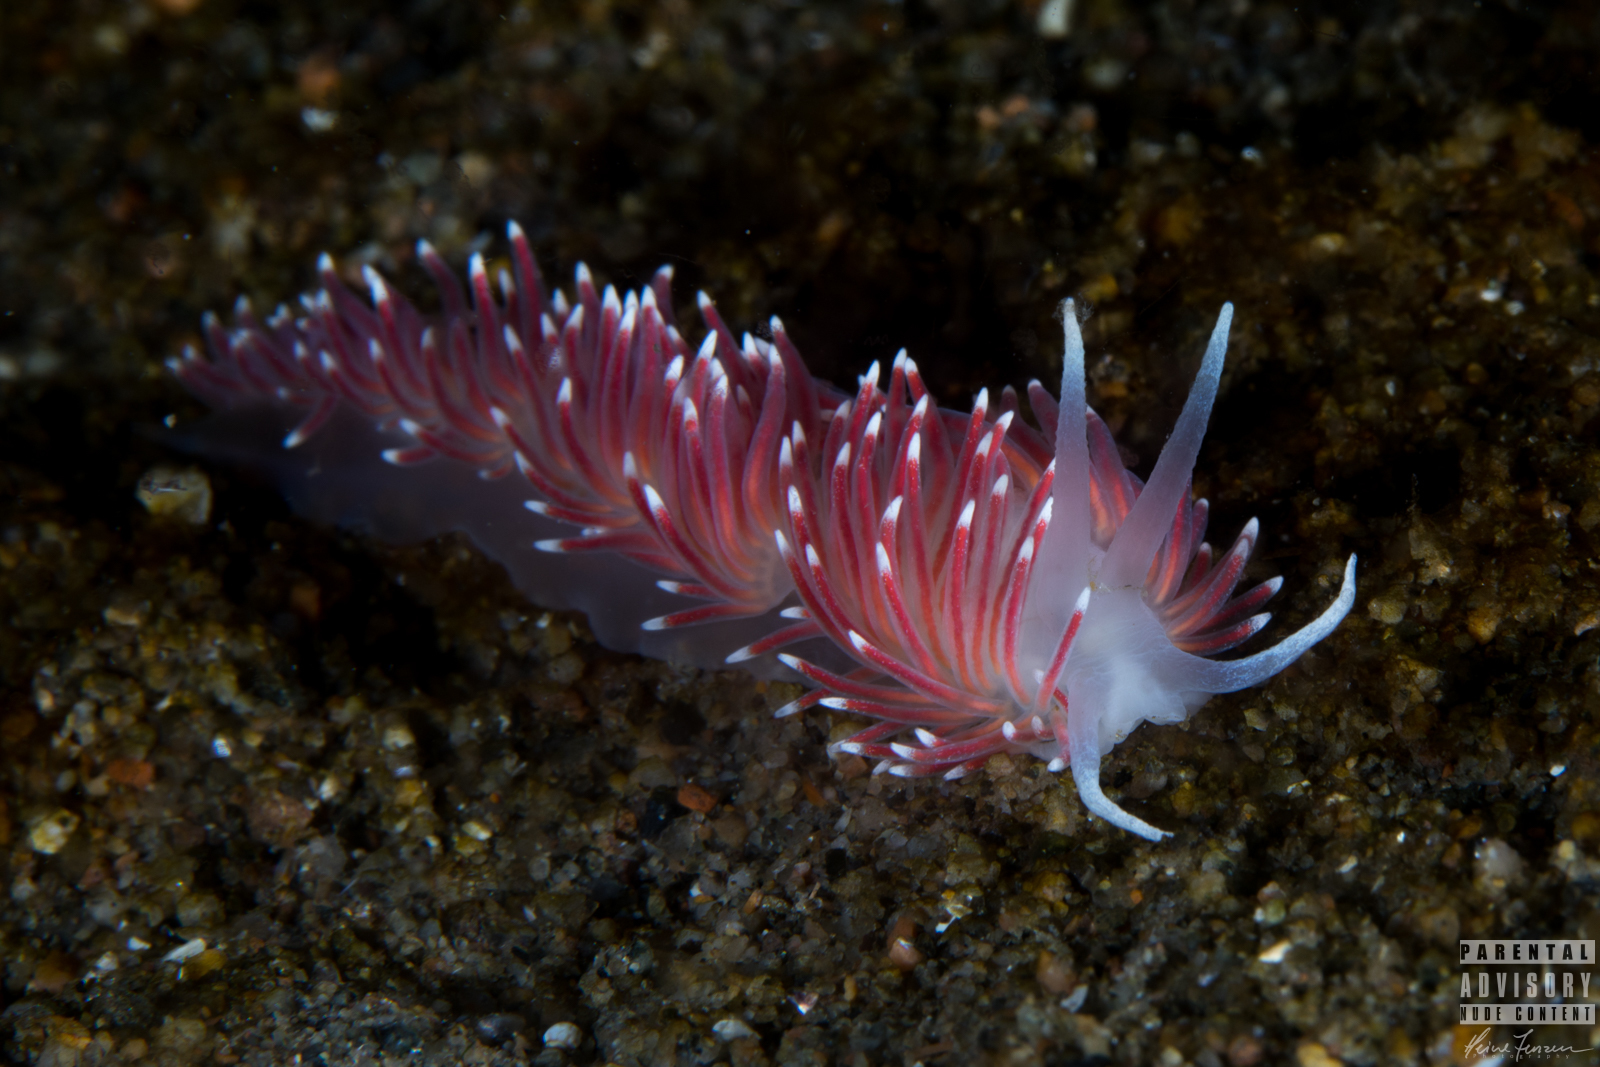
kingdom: Animalia
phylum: Mollusca
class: Gastropoda
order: Nudibranchia
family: Flabellinidae
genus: Carronella
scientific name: Carronella pellucida
